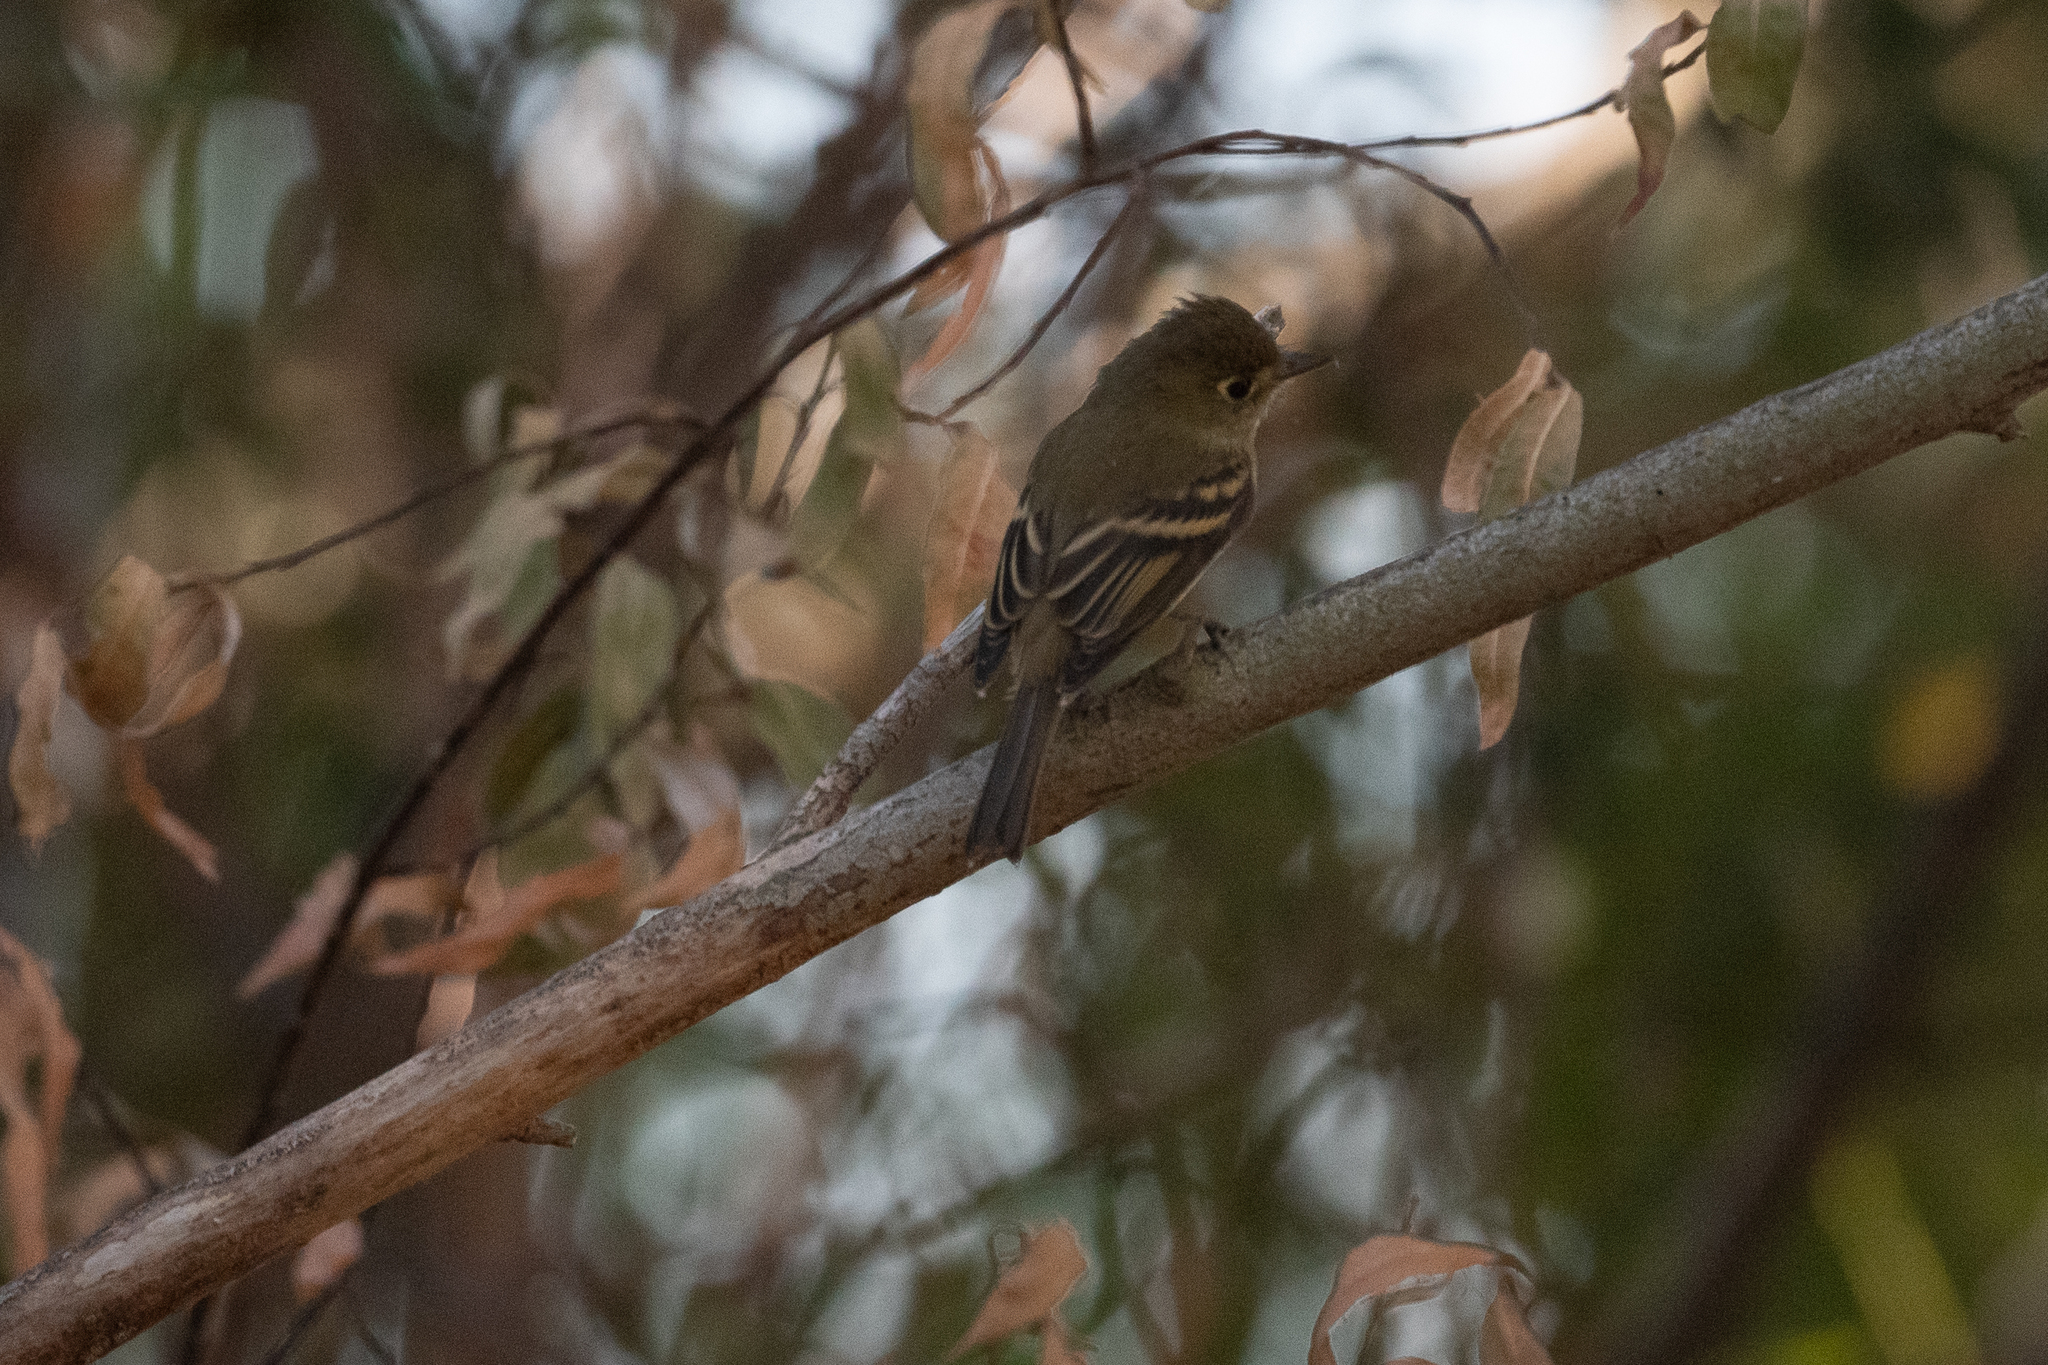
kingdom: Animalia
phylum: Chordata
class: Aves
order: Passeriformes
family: Tyrannidae
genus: Empidonax
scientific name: Empidonax difficilis
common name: Pacific-slope flycatcher
